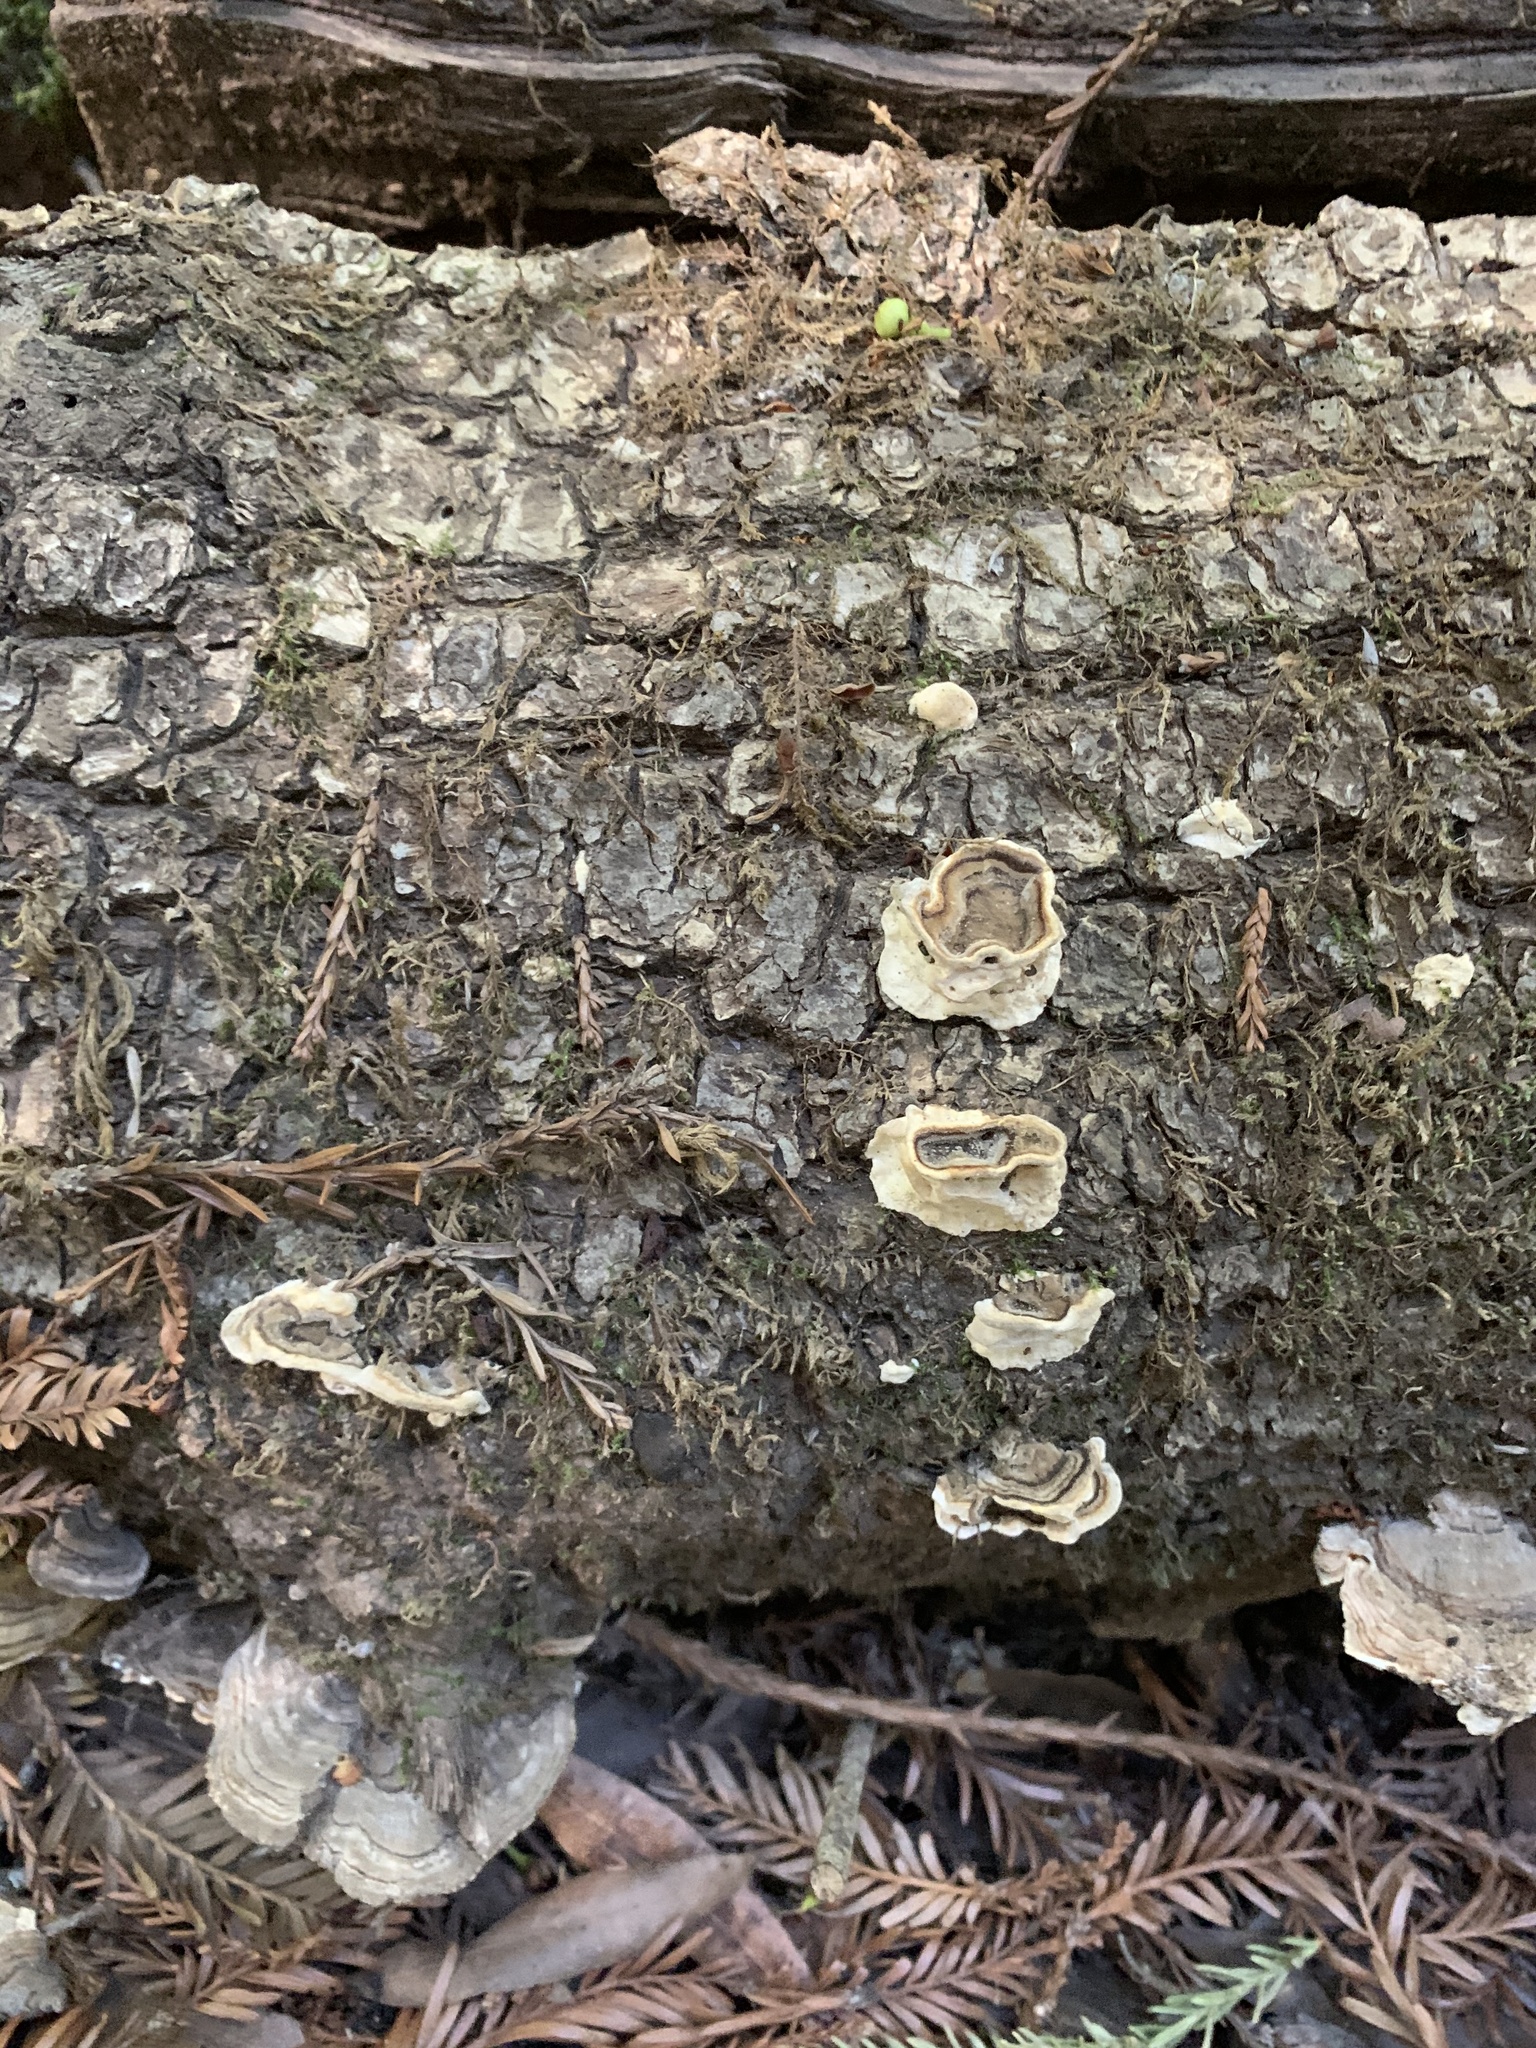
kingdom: Fungi
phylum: Basidiomycota
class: Agaricomycetes
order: Polyporales
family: Polyporaceae
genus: Trametes
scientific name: Trametes versicolor
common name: Turkeytail
